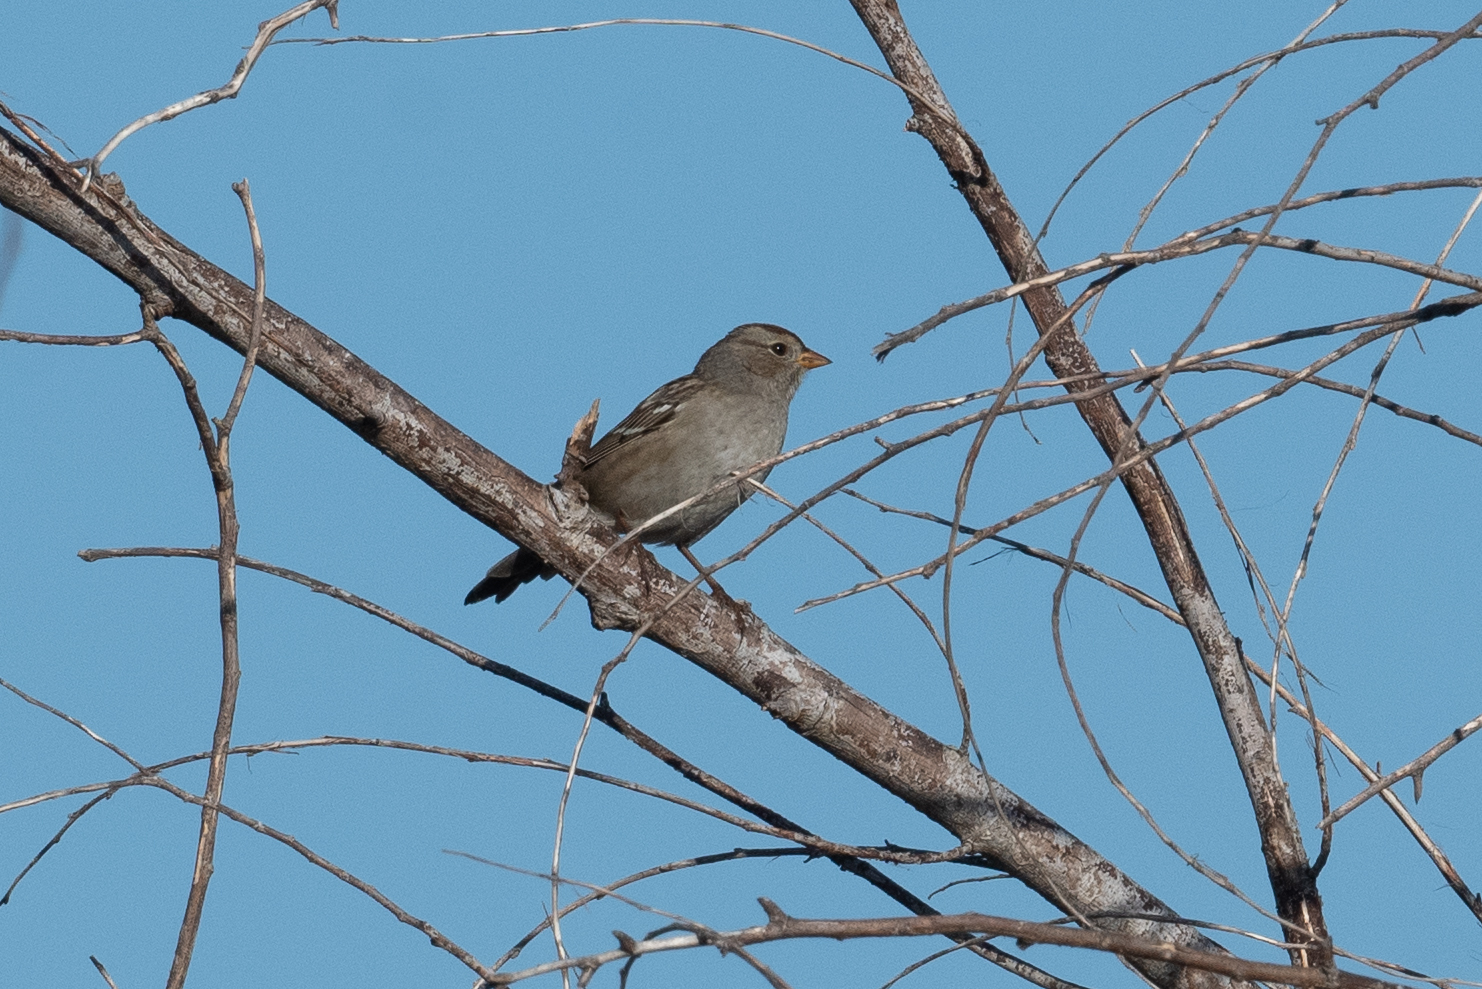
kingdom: Animalia
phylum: Chordata
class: Aves
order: Passeriformes
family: Passerellidae
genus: Zonotrichia
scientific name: Zonotrichia leucophrys
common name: White-crowned sparrow
